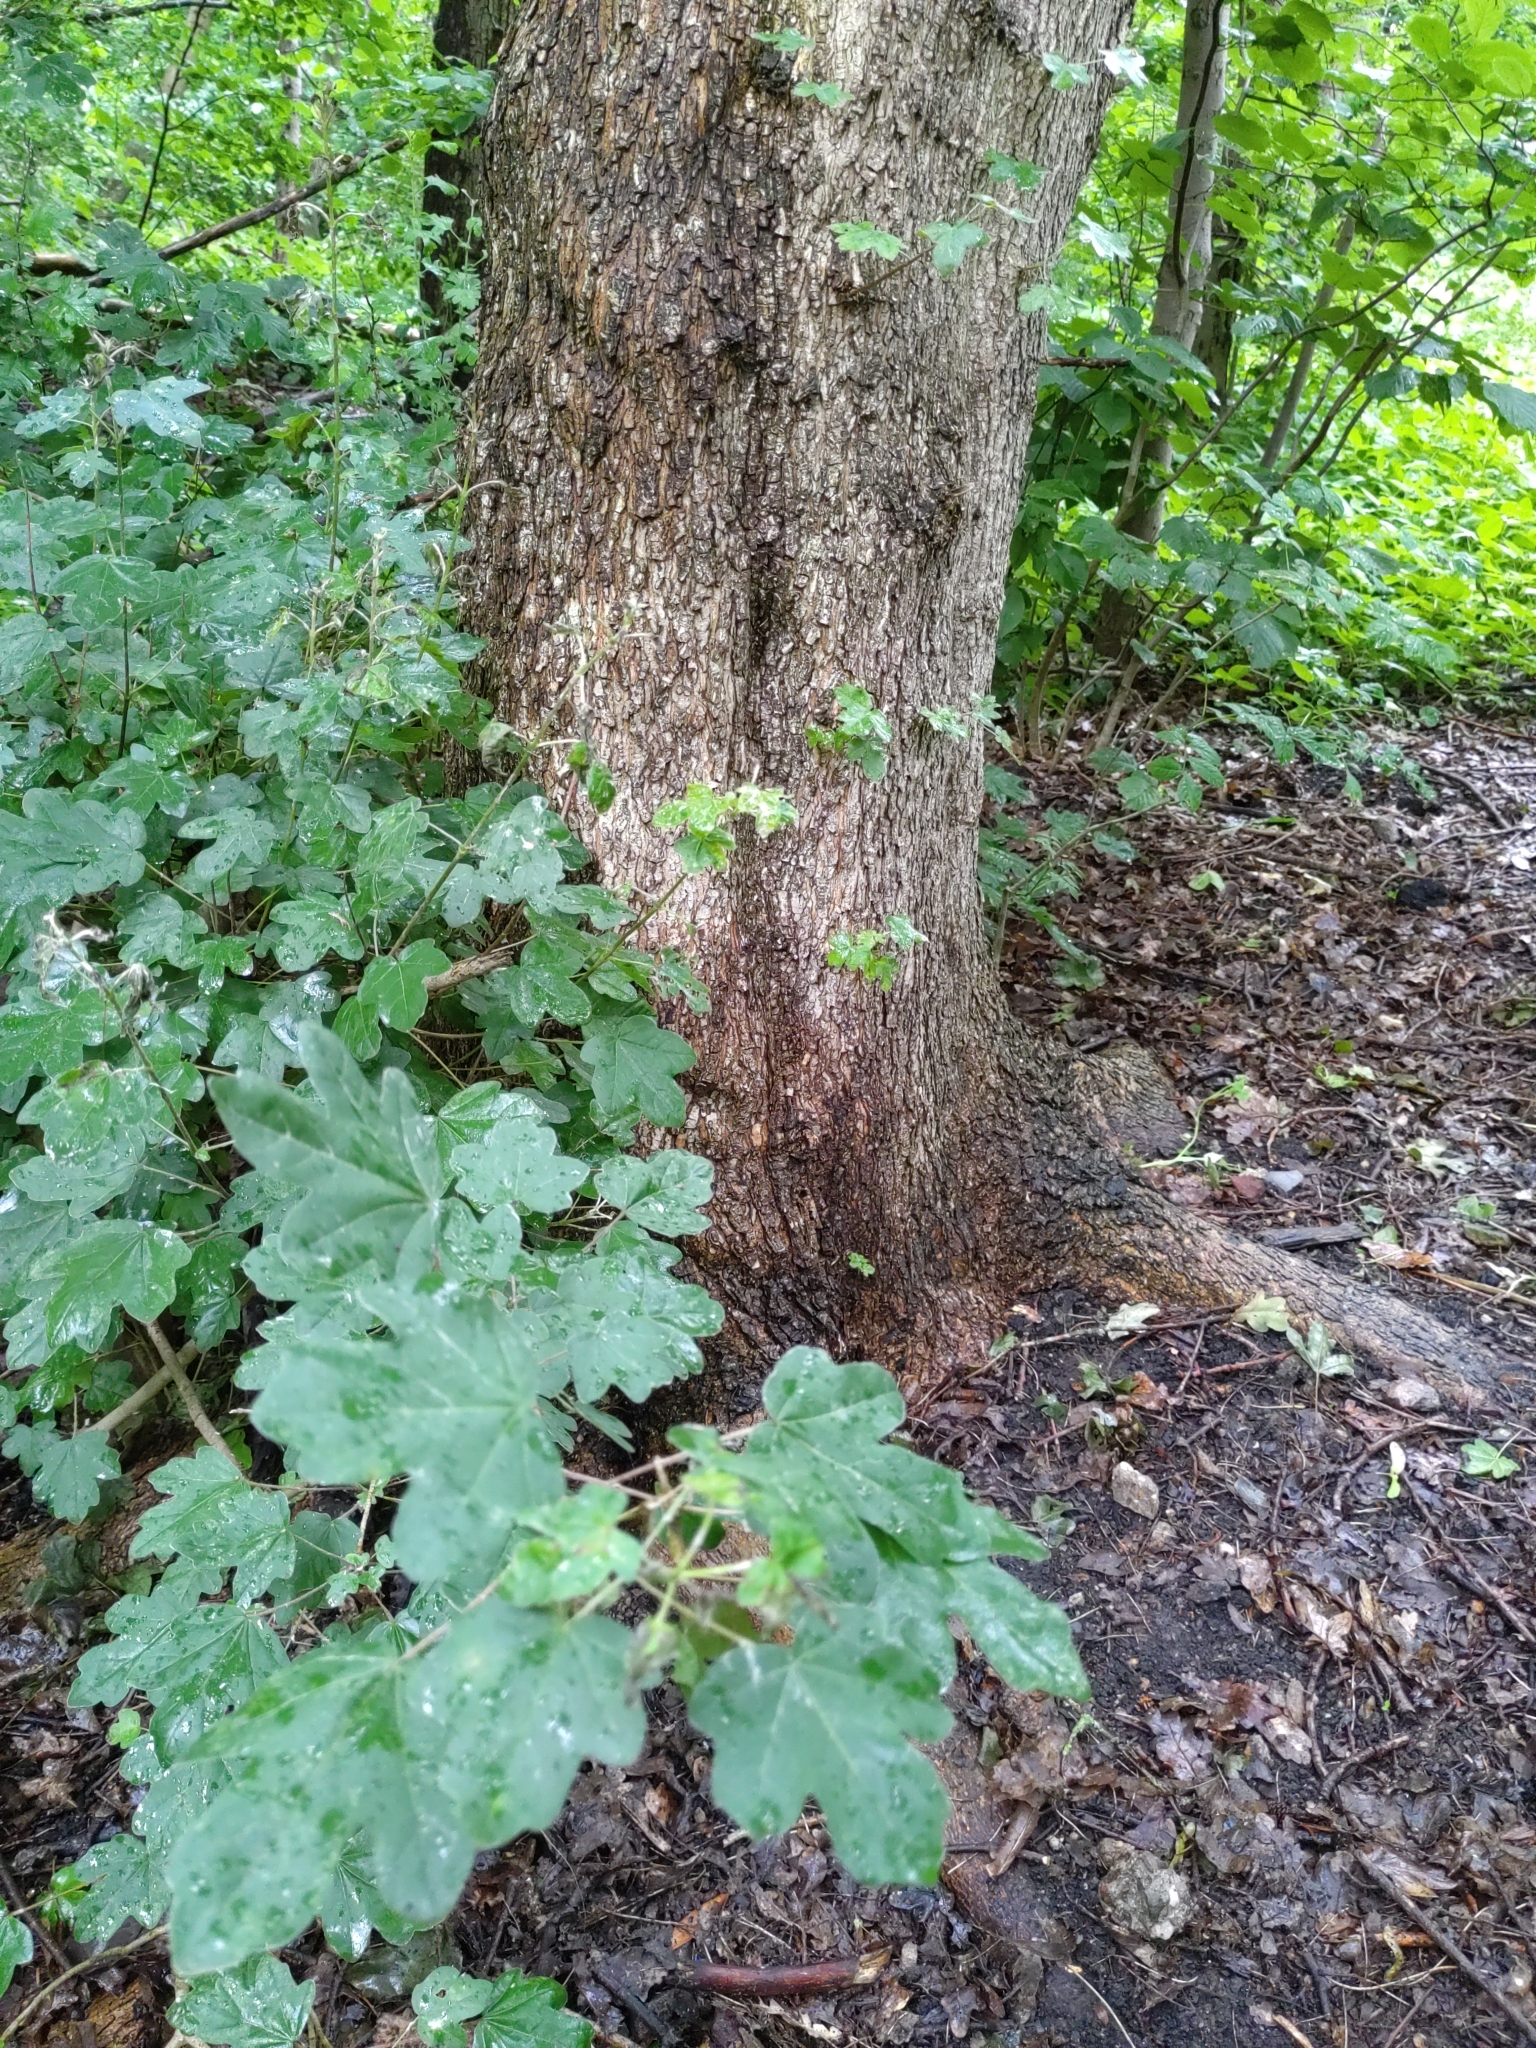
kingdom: Plantae
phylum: Tracheophyta
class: Magnoliopsida
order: Sapindales
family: Sapindaceae
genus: Acer
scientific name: Acer campestre
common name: Field maple
